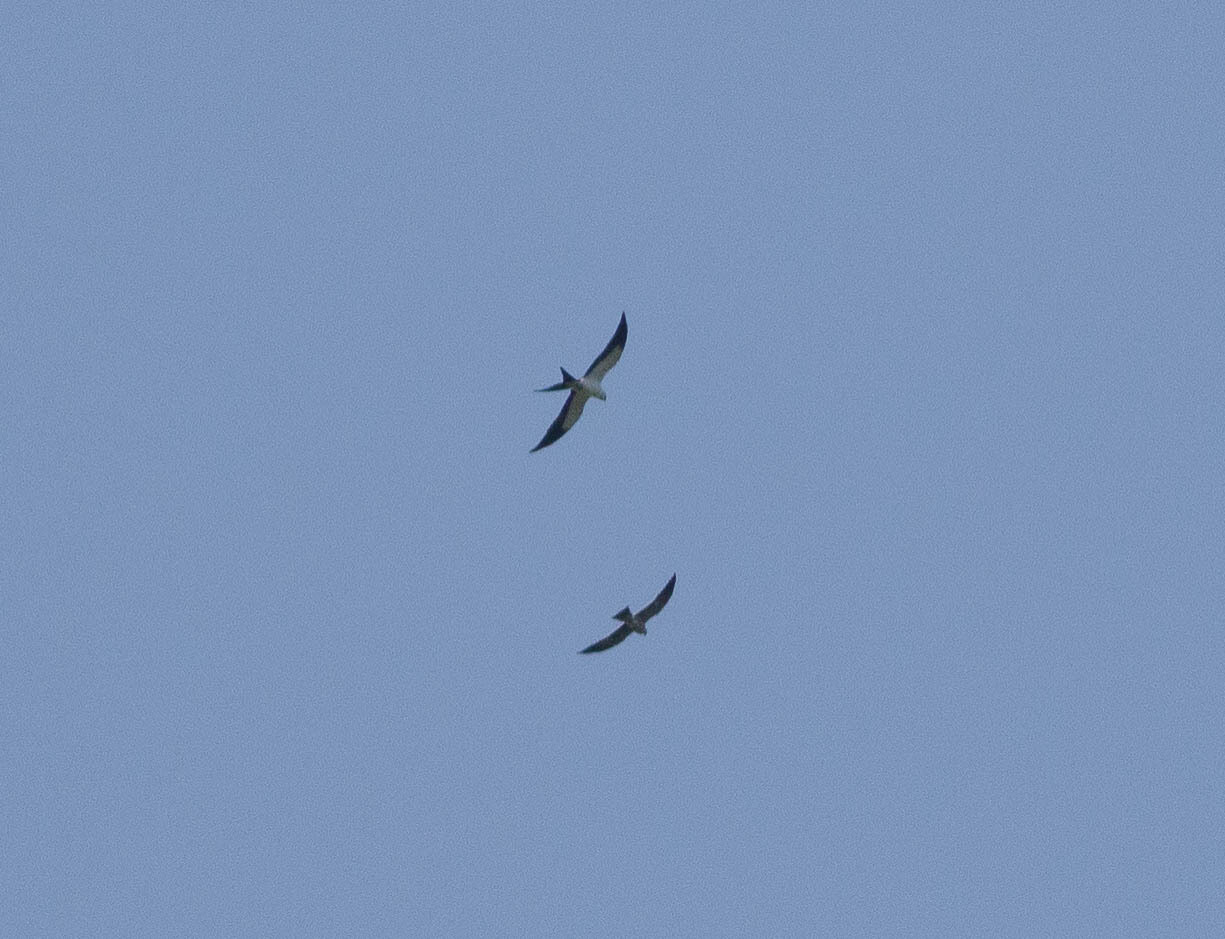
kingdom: Animalia
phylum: Chordata
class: Aves
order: Accipitriformes
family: Accipitridae
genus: Elanoides
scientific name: Elanoides forficatus
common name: Swallow-tailed kite
